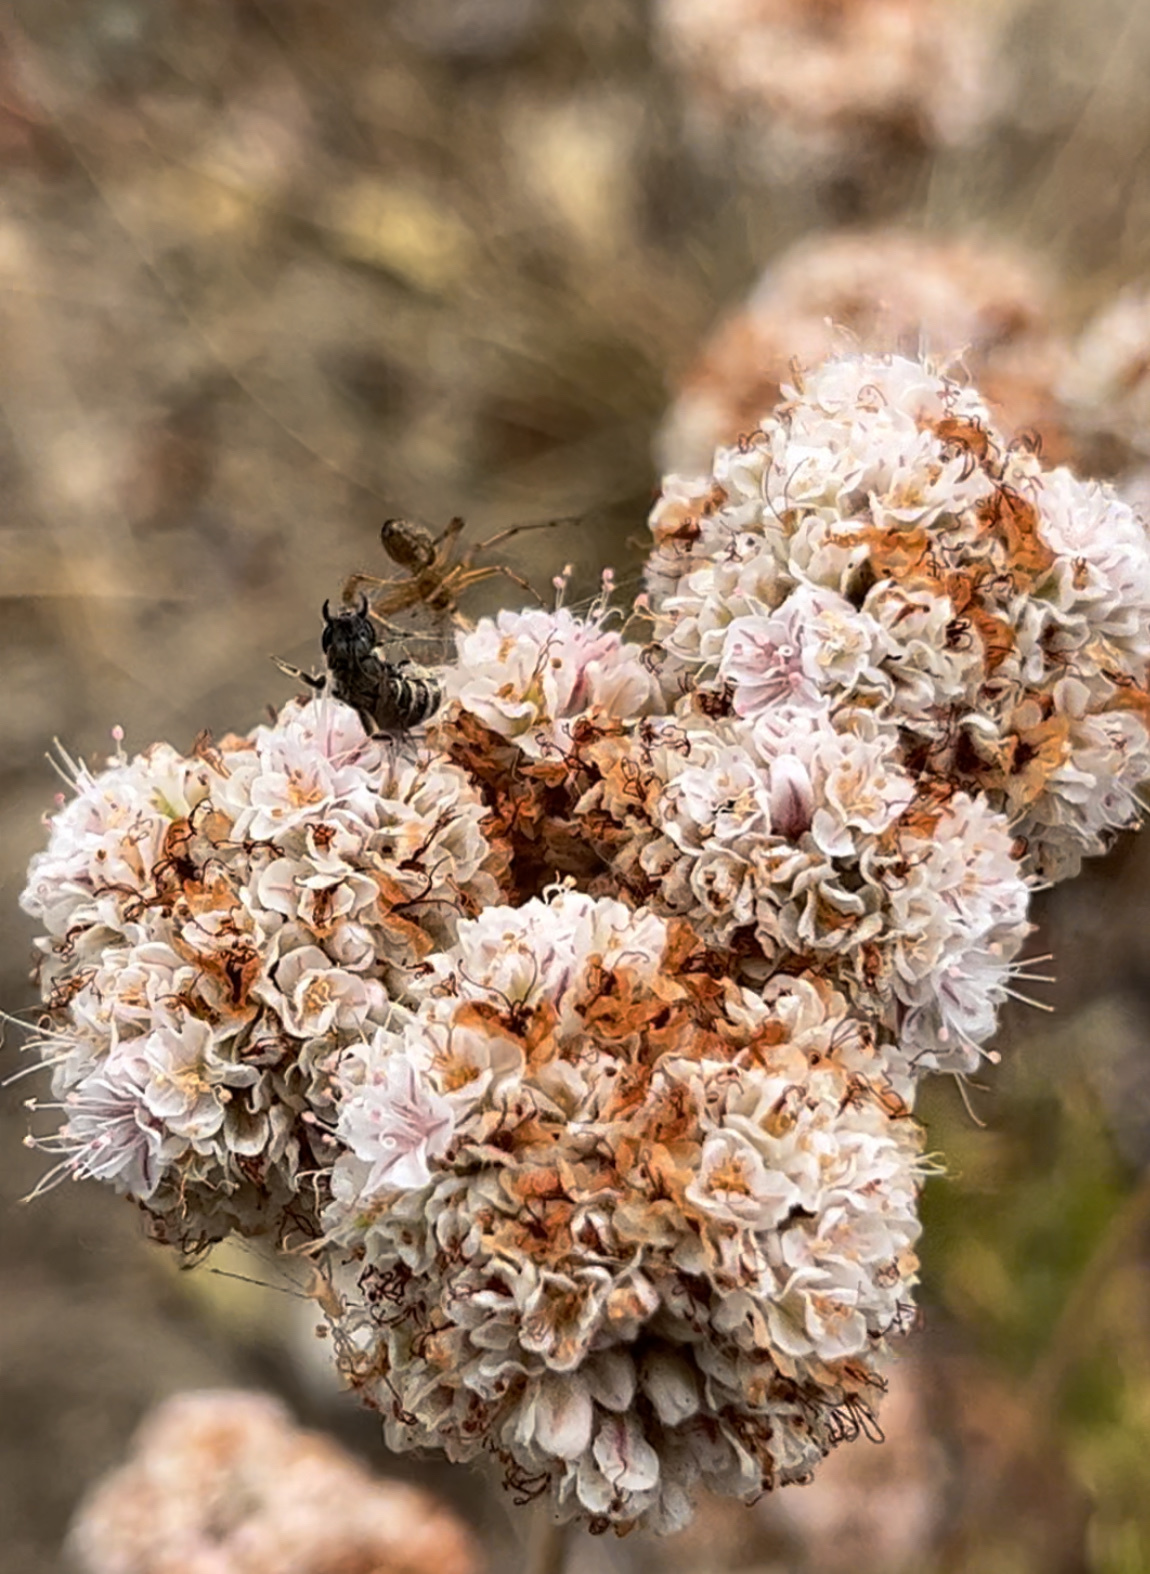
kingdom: Animalia
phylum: Arthropoda
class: Insecta
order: Hymenoptera
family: Halictidae
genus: Halictus
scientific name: Halictus tripartitus
